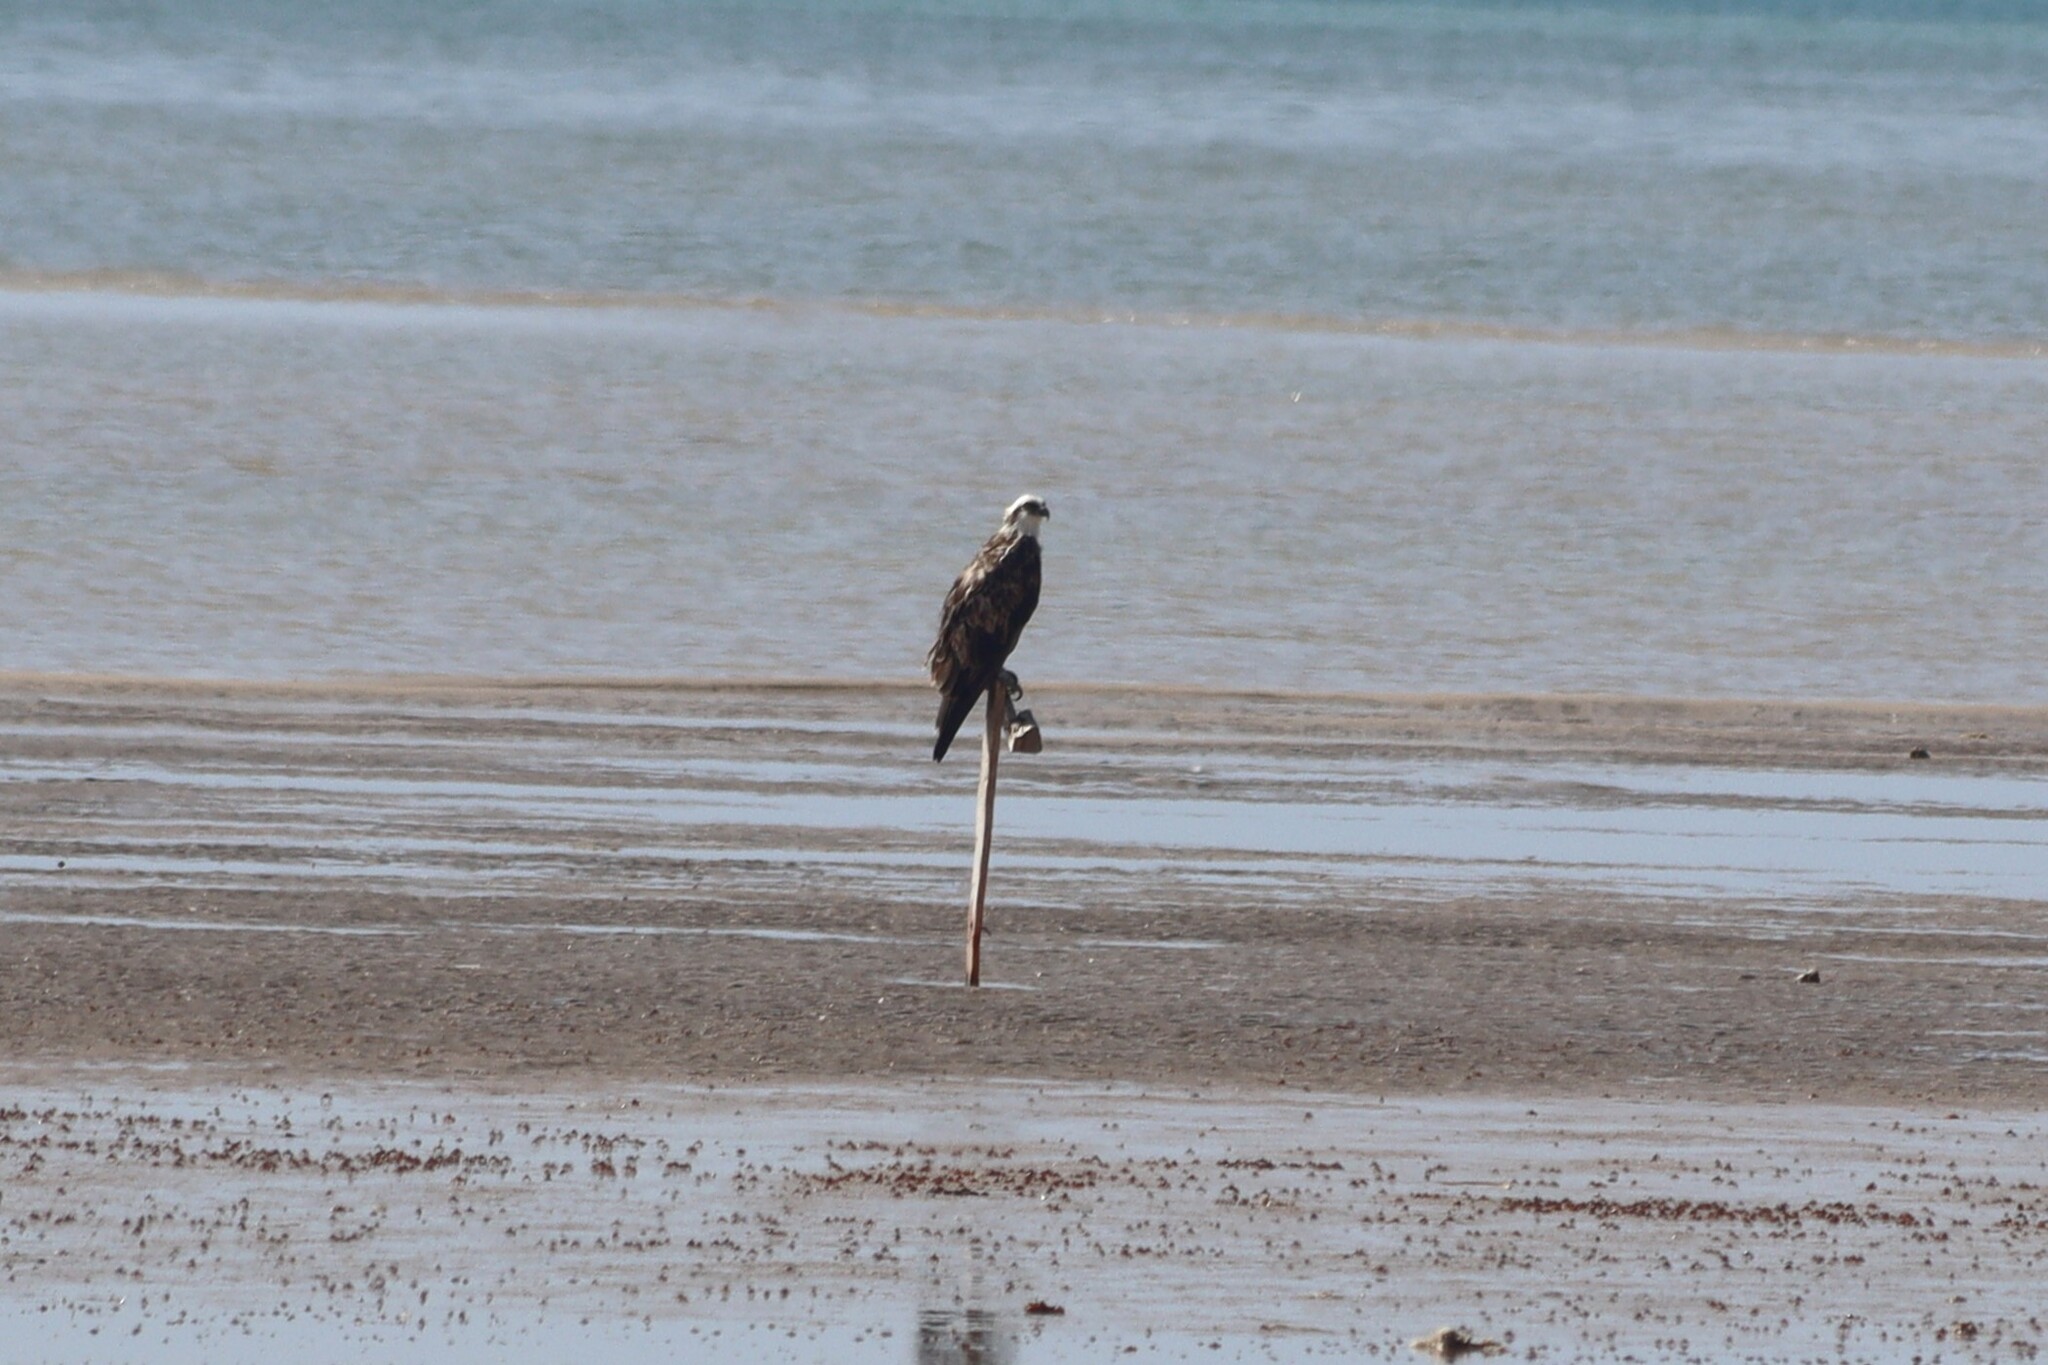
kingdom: Animalia
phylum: Chordata
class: Aves
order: Accipitriformes
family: Pandionidae
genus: Pandion
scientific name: Pandion haliaetus
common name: Osprey
